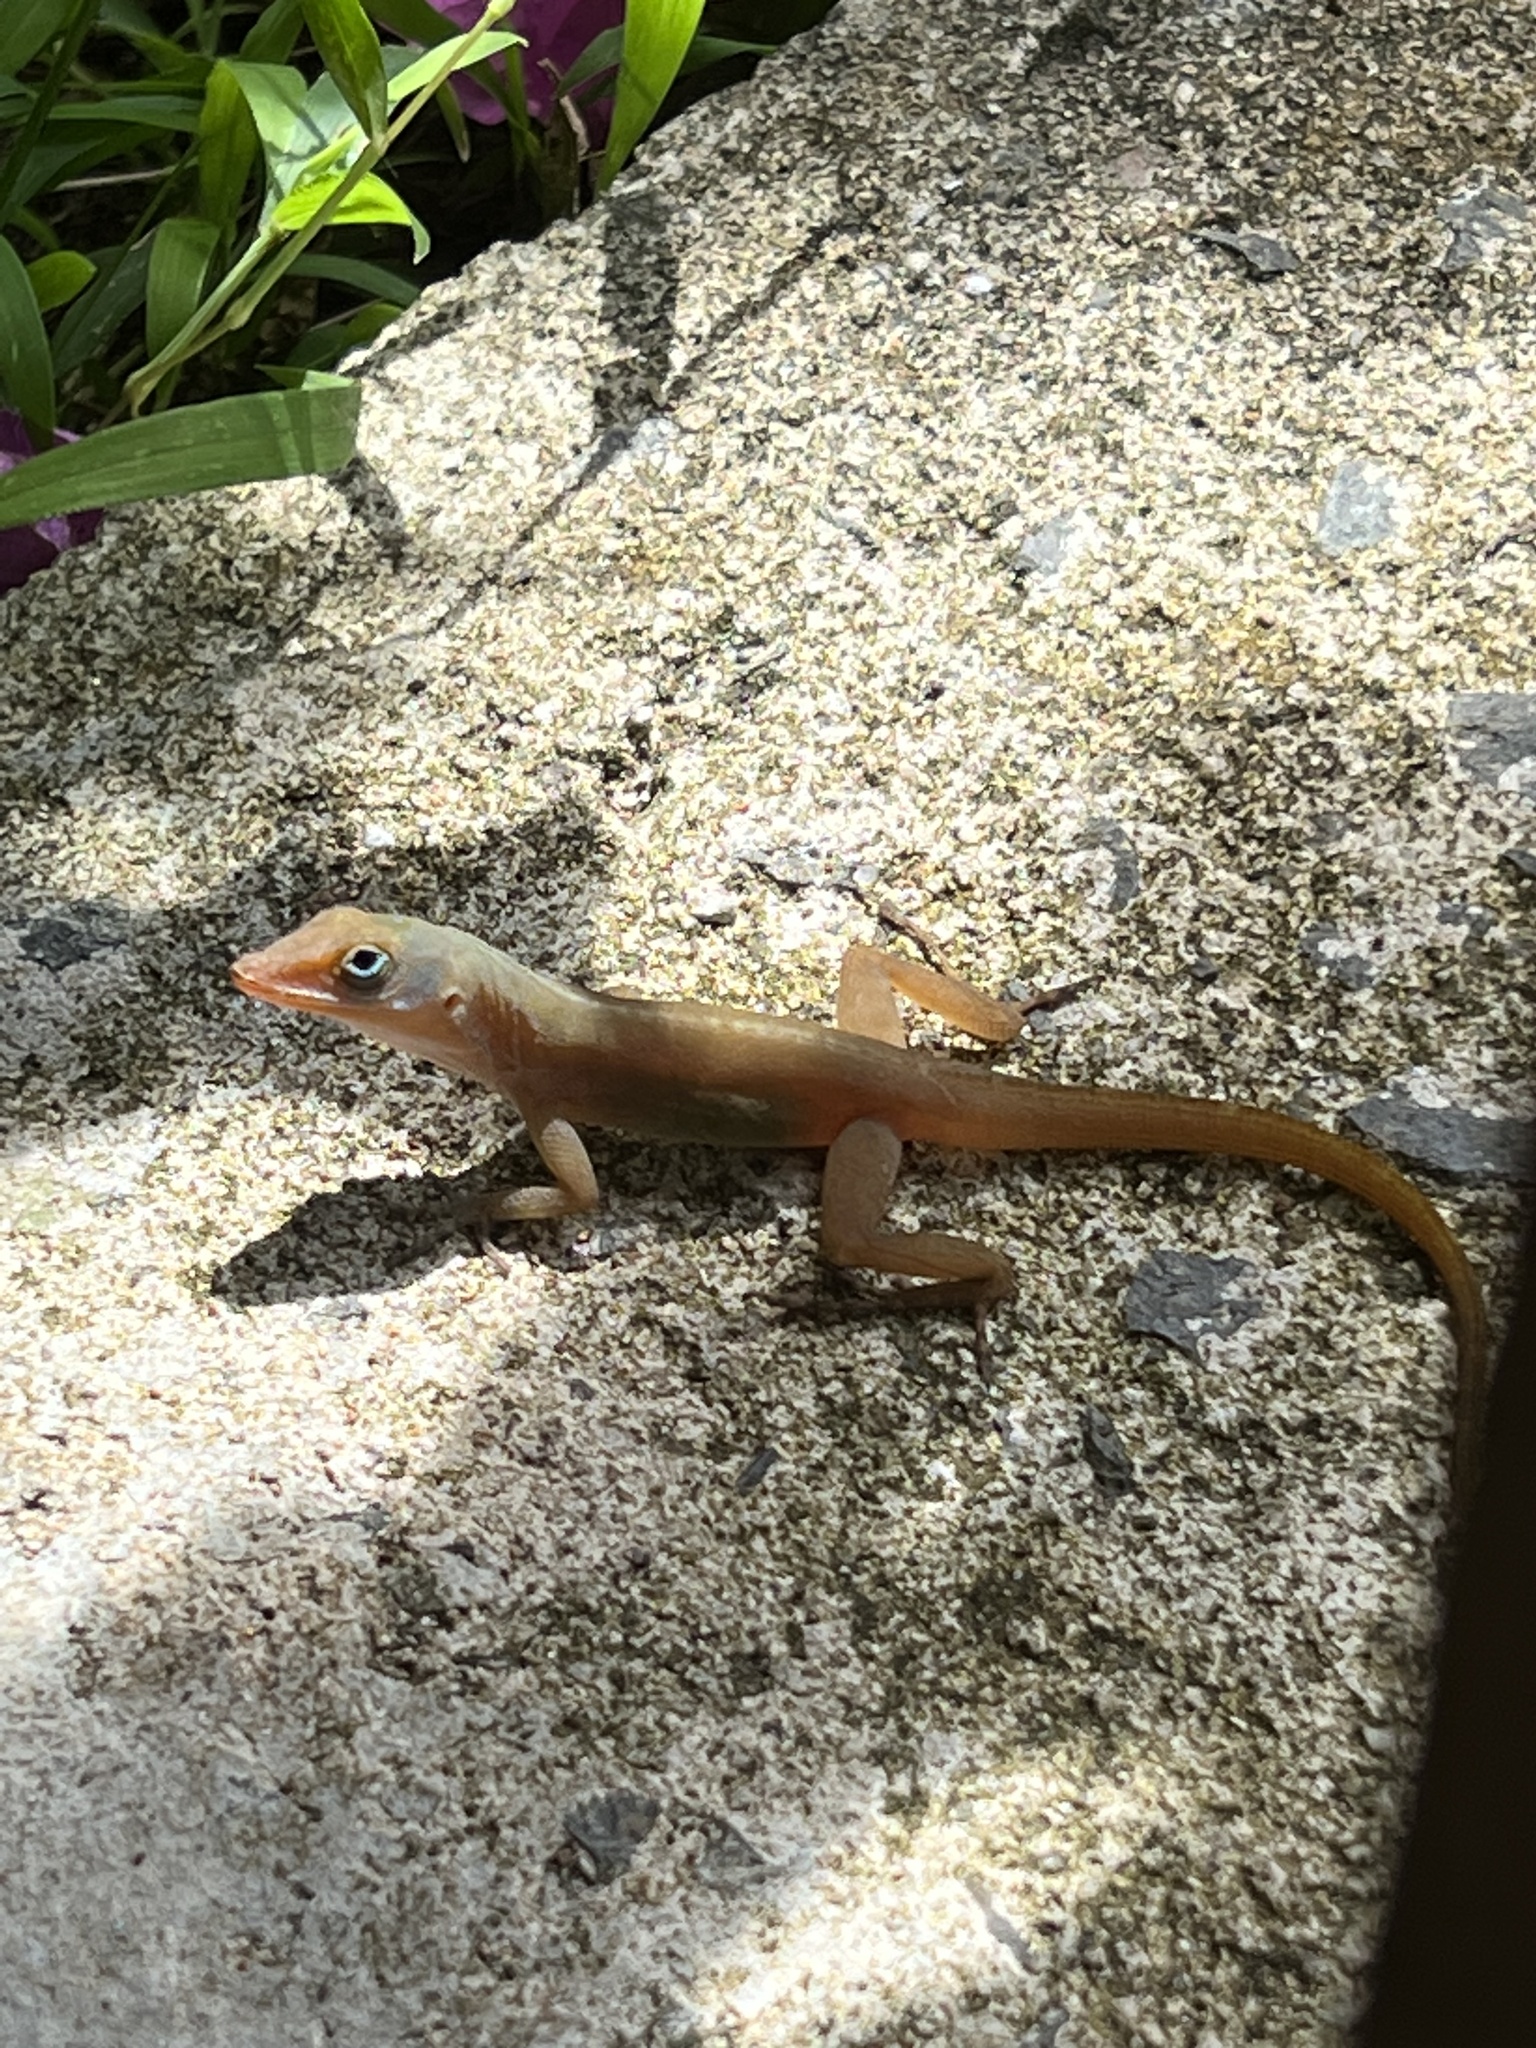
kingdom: Animalia
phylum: Chordata
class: Squamata
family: Dactyloidae
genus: Anolis
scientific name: Anolis wattsii
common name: Antigua bank bush anole
